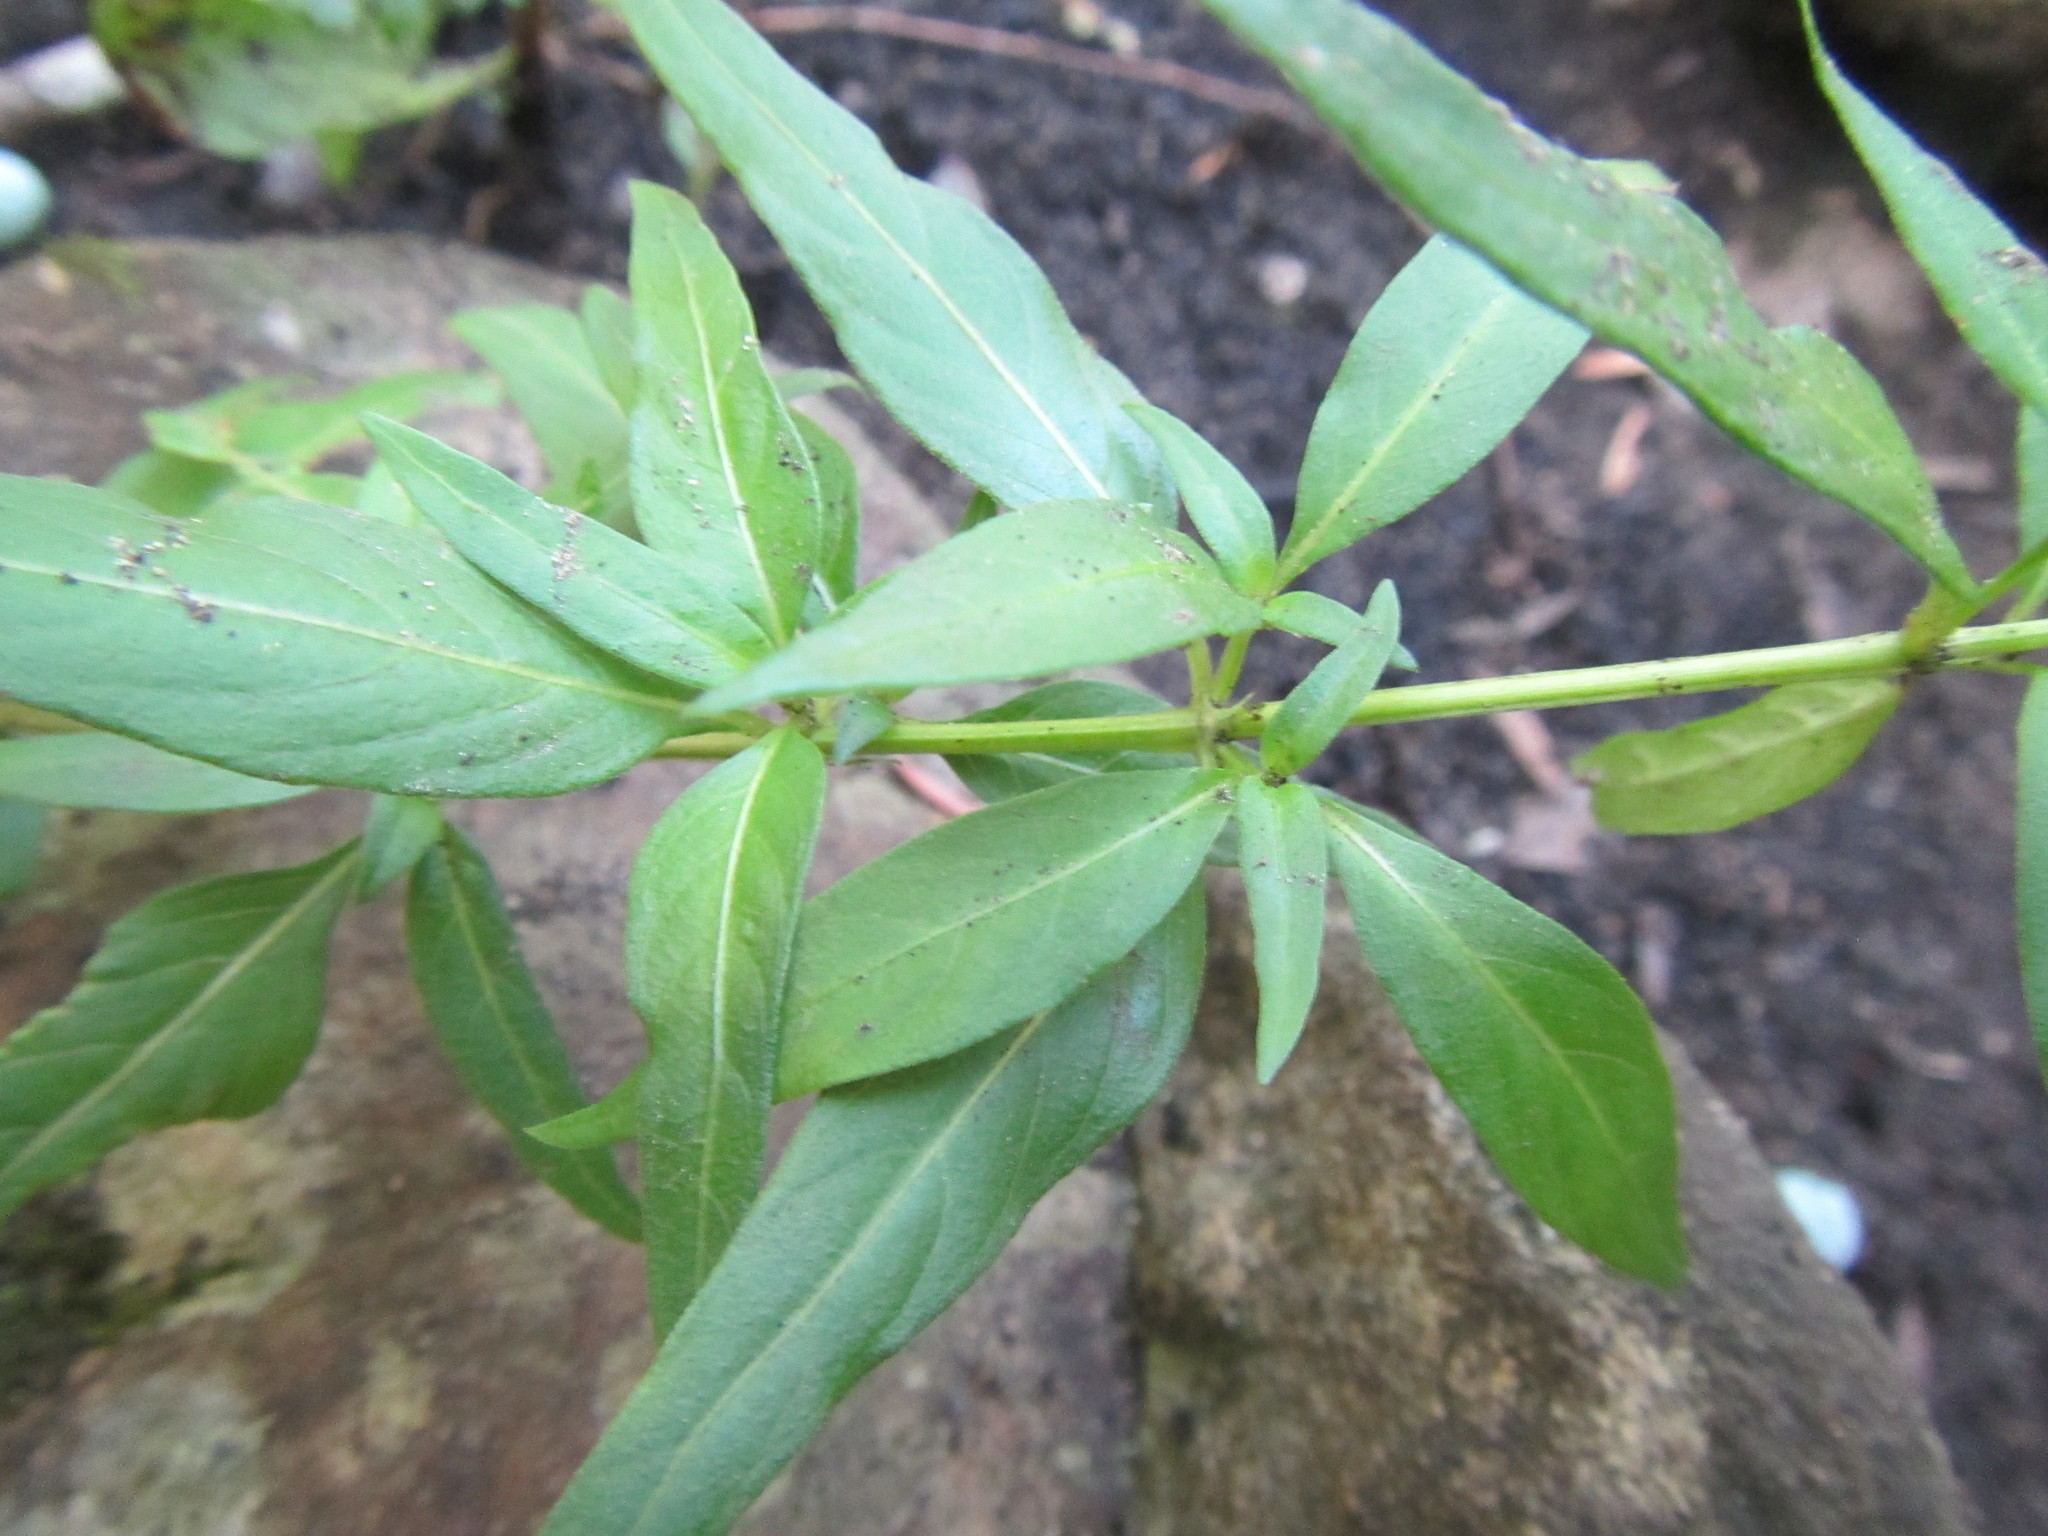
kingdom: Plantae
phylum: Tracheophyta
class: Magnoliopsida
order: Gentianales
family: Rubiaceae
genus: Galopina
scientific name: Galopina circaeoides
